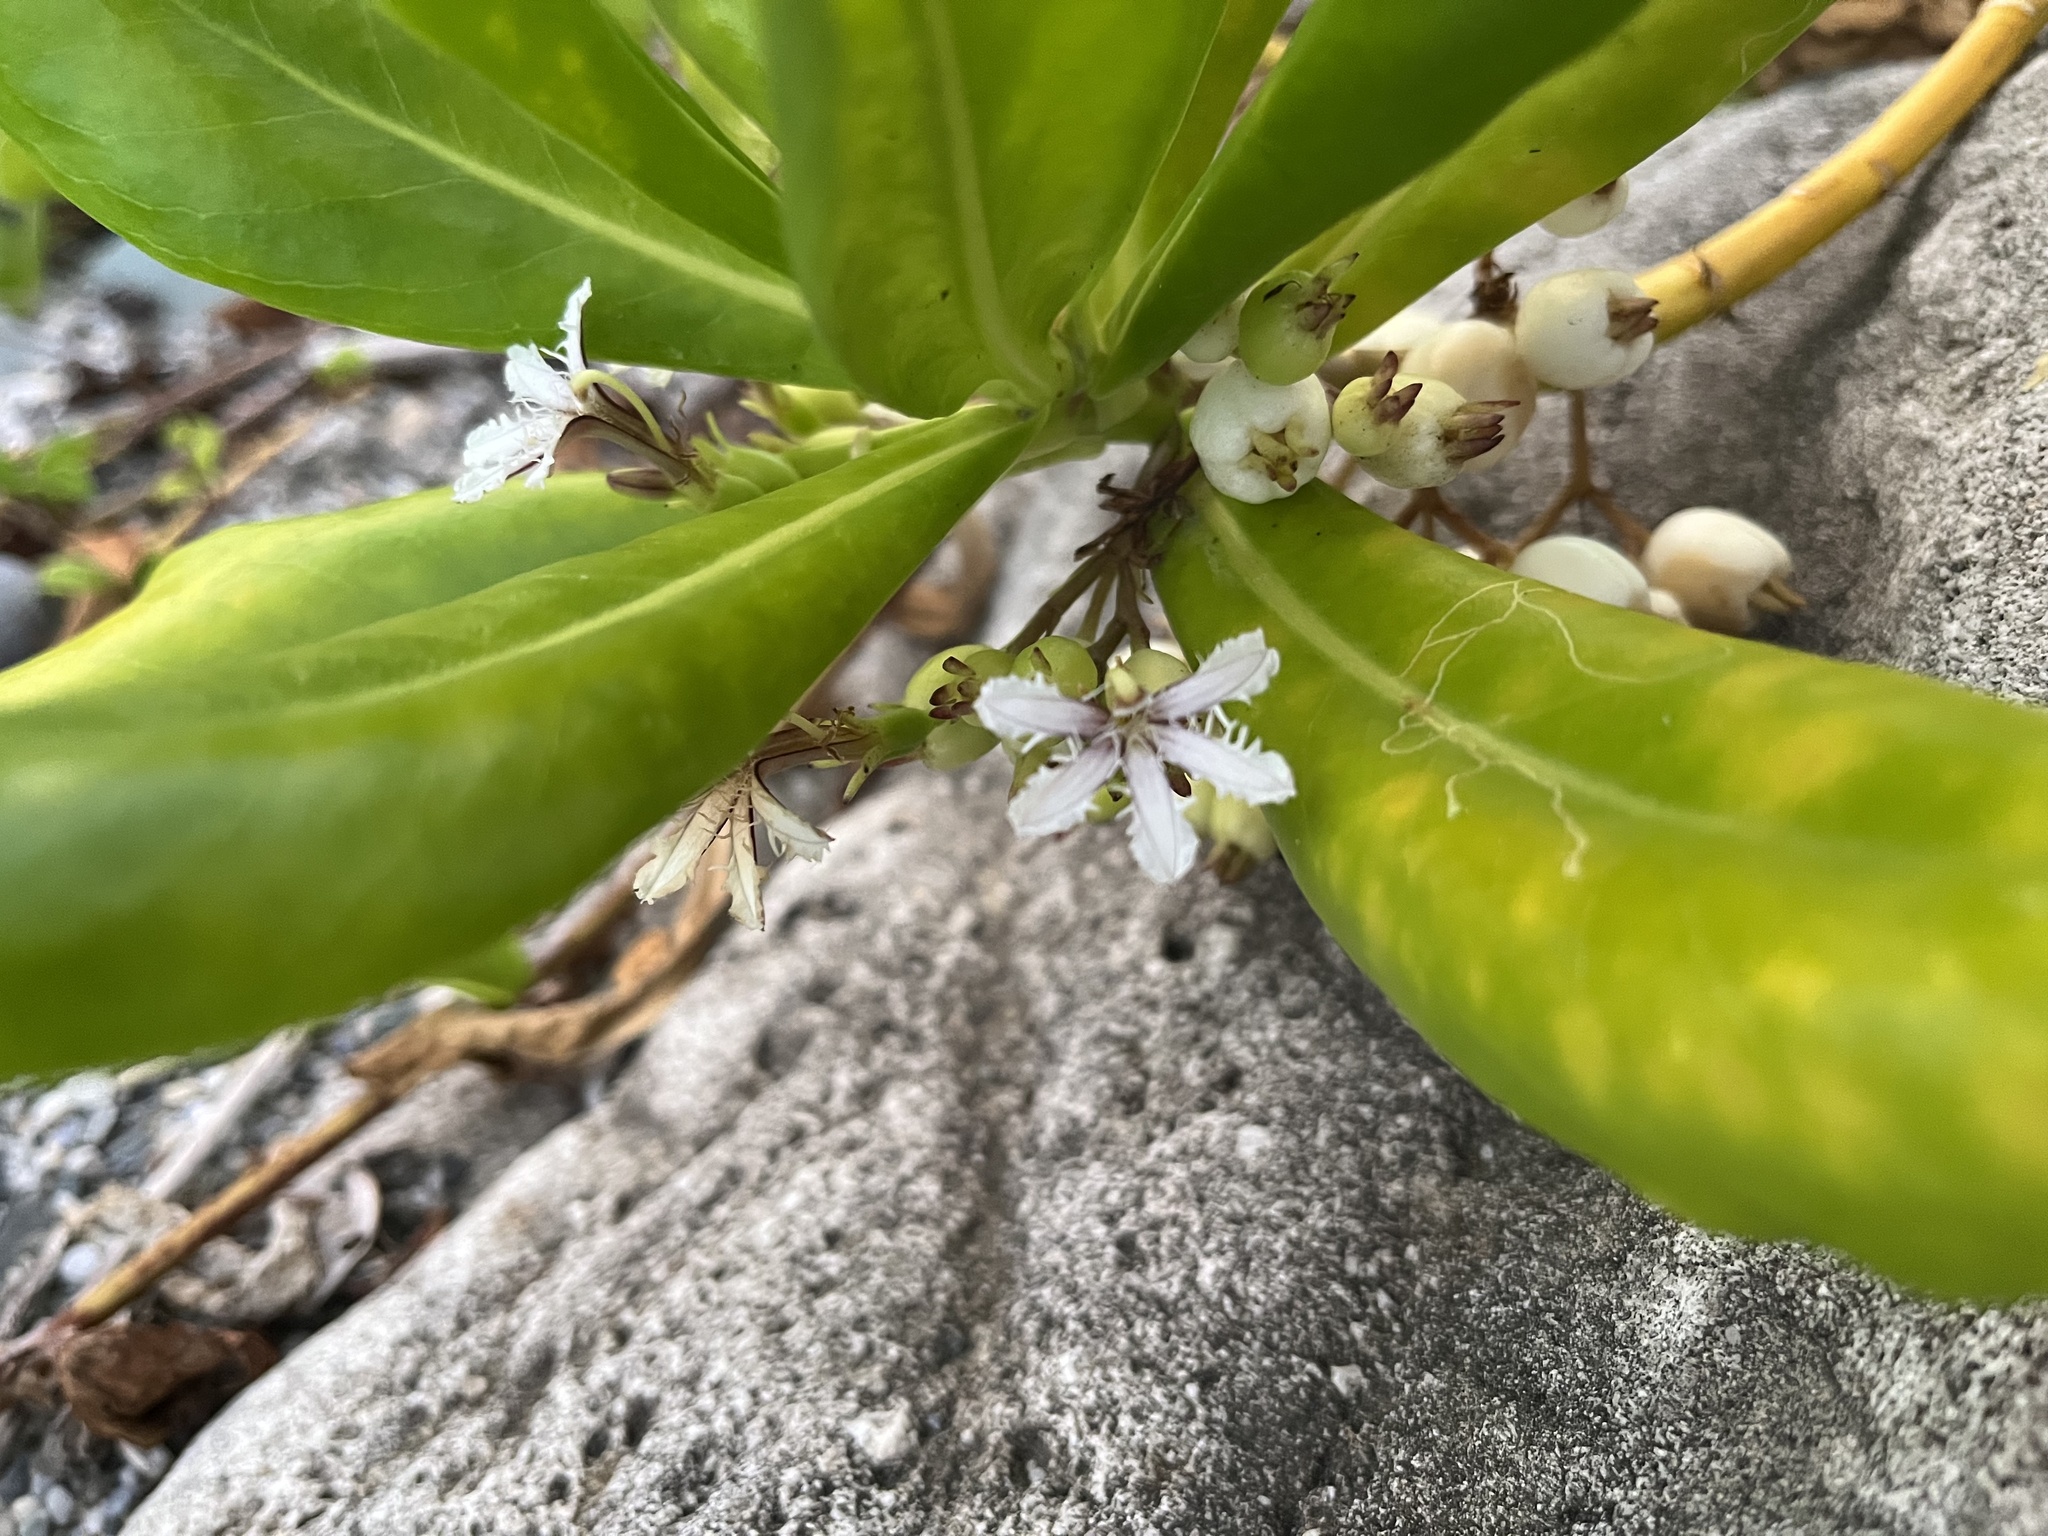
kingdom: Plantae
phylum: Tracheophyta
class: Magnoliopsida
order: Asterales
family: Goodeniaceae
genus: Scaevola
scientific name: Scaevola taccada
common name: Sea lettucetree
